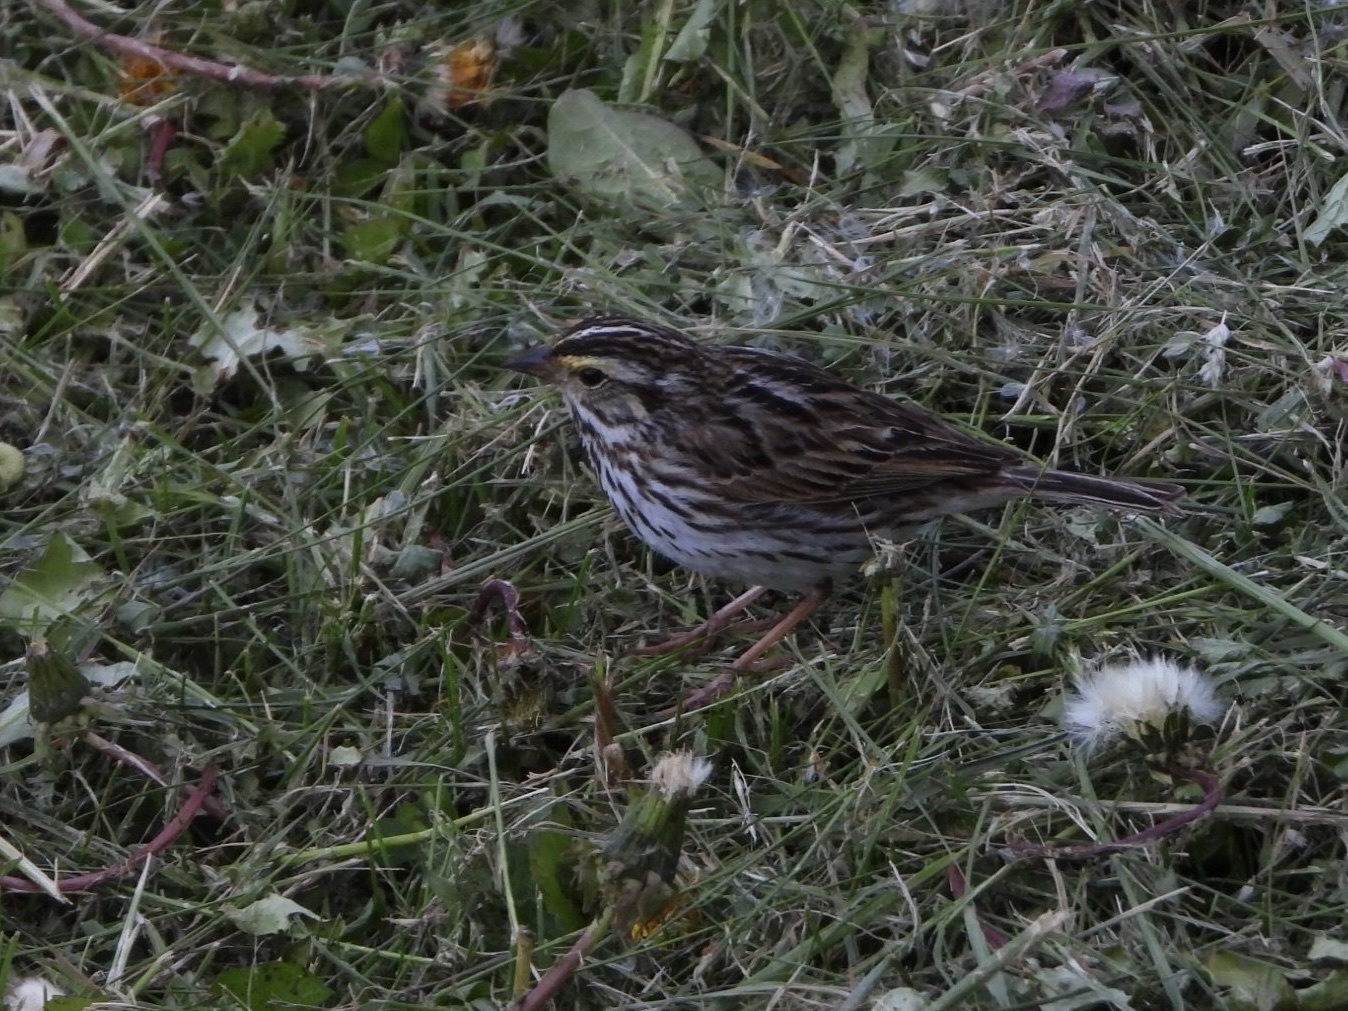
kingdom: Animalia
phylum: Chordata
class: Aves
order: Passeriformes
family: Passerellidae
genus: Passerculus
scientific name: Passerculus sandwichensis
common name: Savannah sparrow
